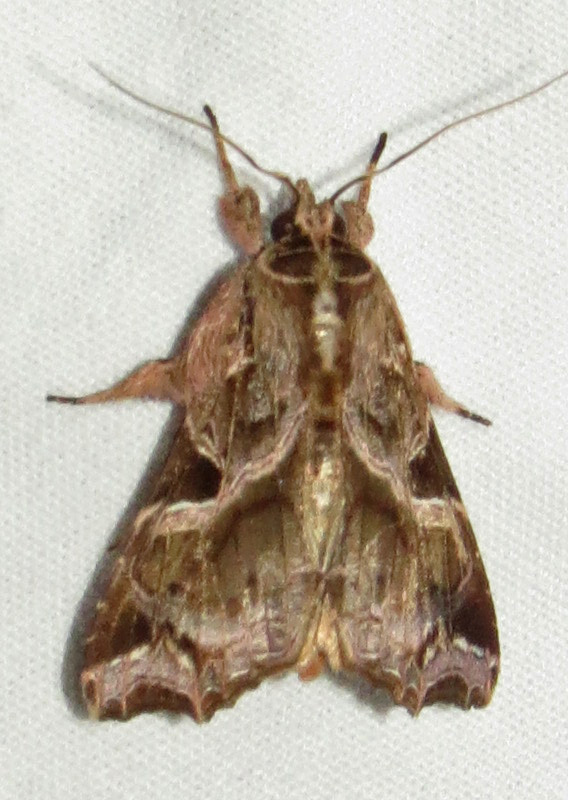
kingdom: Animalia
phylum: Arthropoda
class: Insecta
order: Lepidoptera
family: Noctuidae
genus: Callopistria
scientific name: Callopistria floridensis
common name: Florida fern moth
